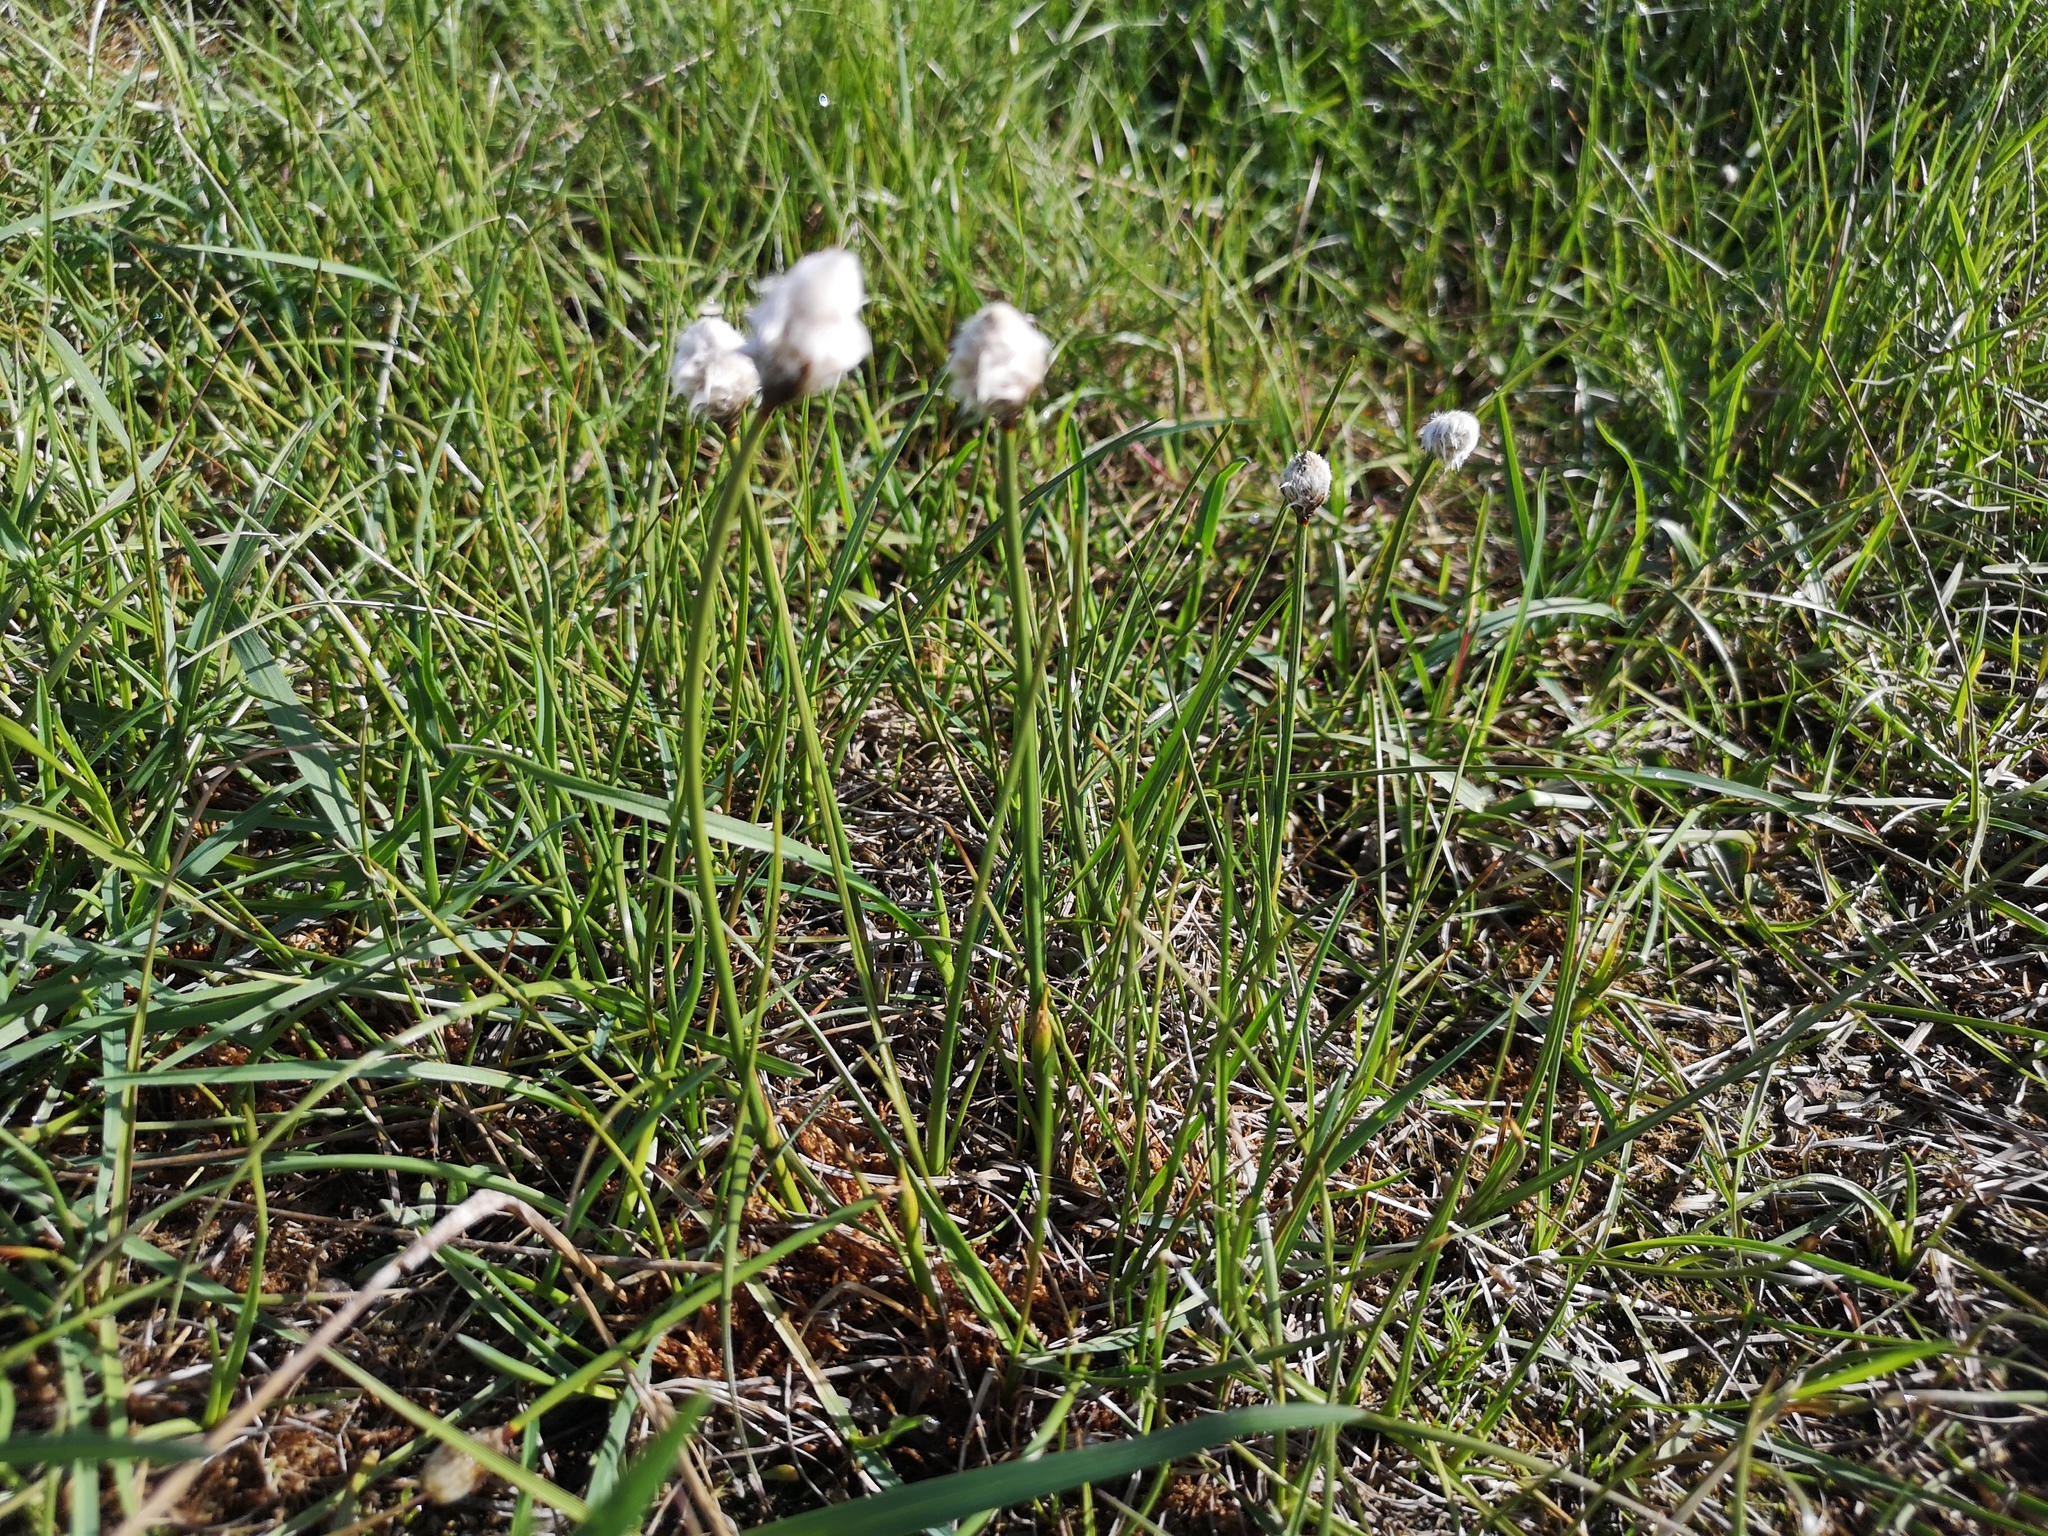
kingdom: Plantae
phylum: Tracheophyta
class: Liliopsida
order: Poales
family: Cyperaceae
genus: Eriophorum
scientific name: Eriophorum scheuchzeri
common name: Scheuchzer's cottongrass
